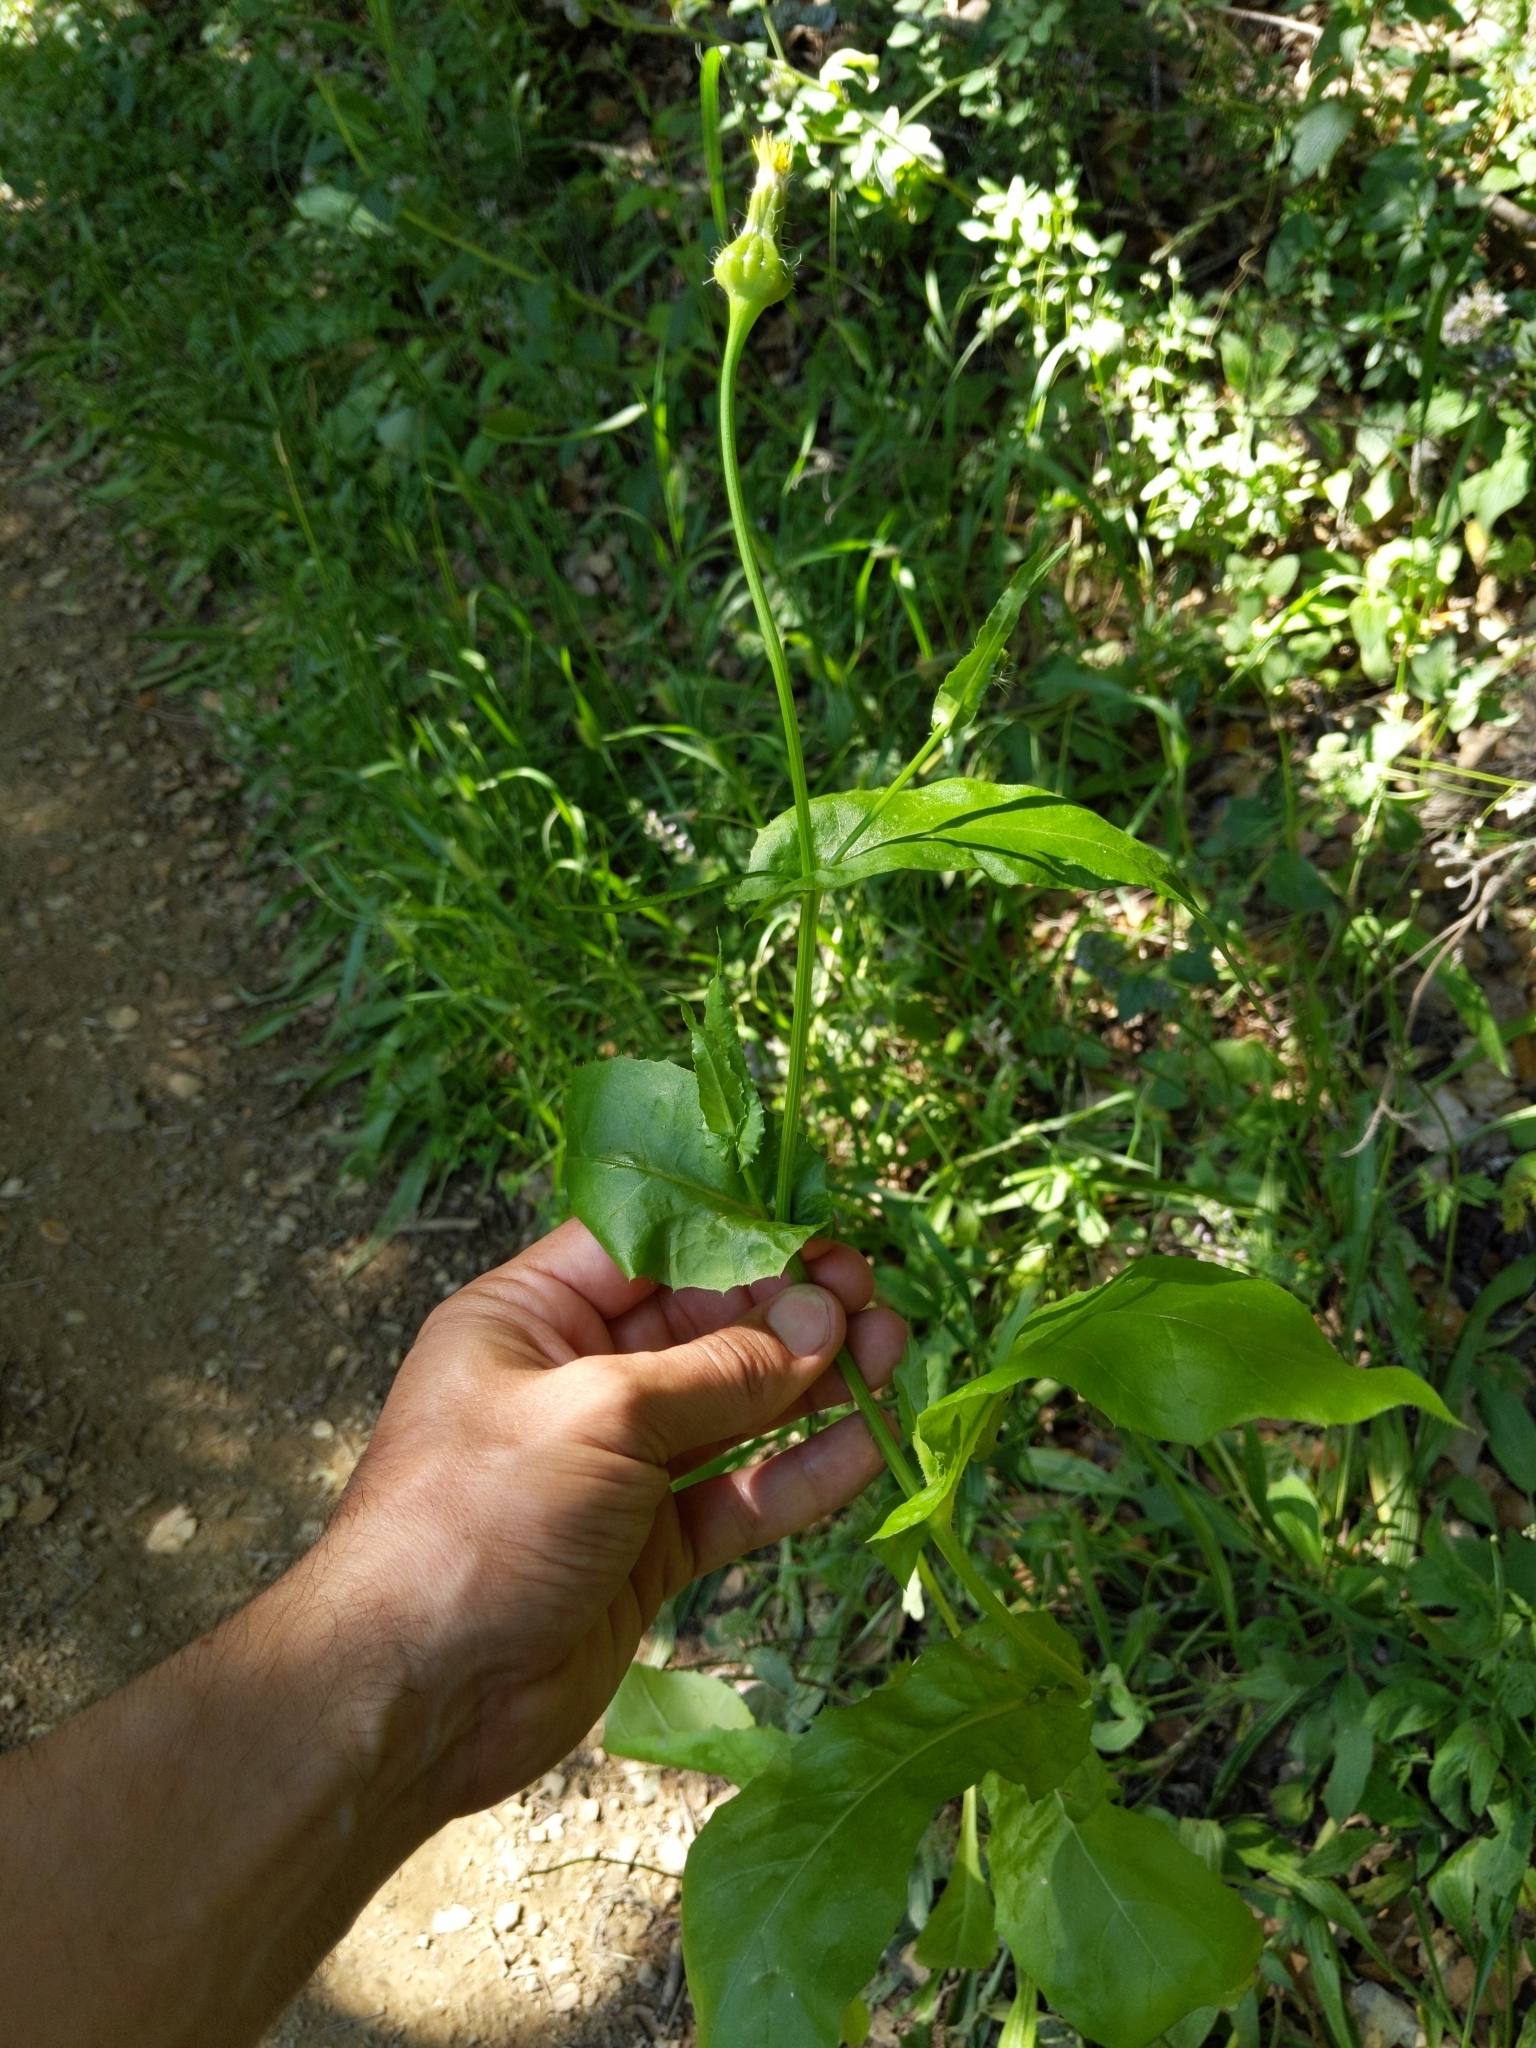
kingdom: Plantae
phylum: Tracheophyta
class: Magnoliopsida
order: Asterales
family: Asteraceae
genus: Urospermum
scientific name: Urospermum picroides
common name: False hawkbit
